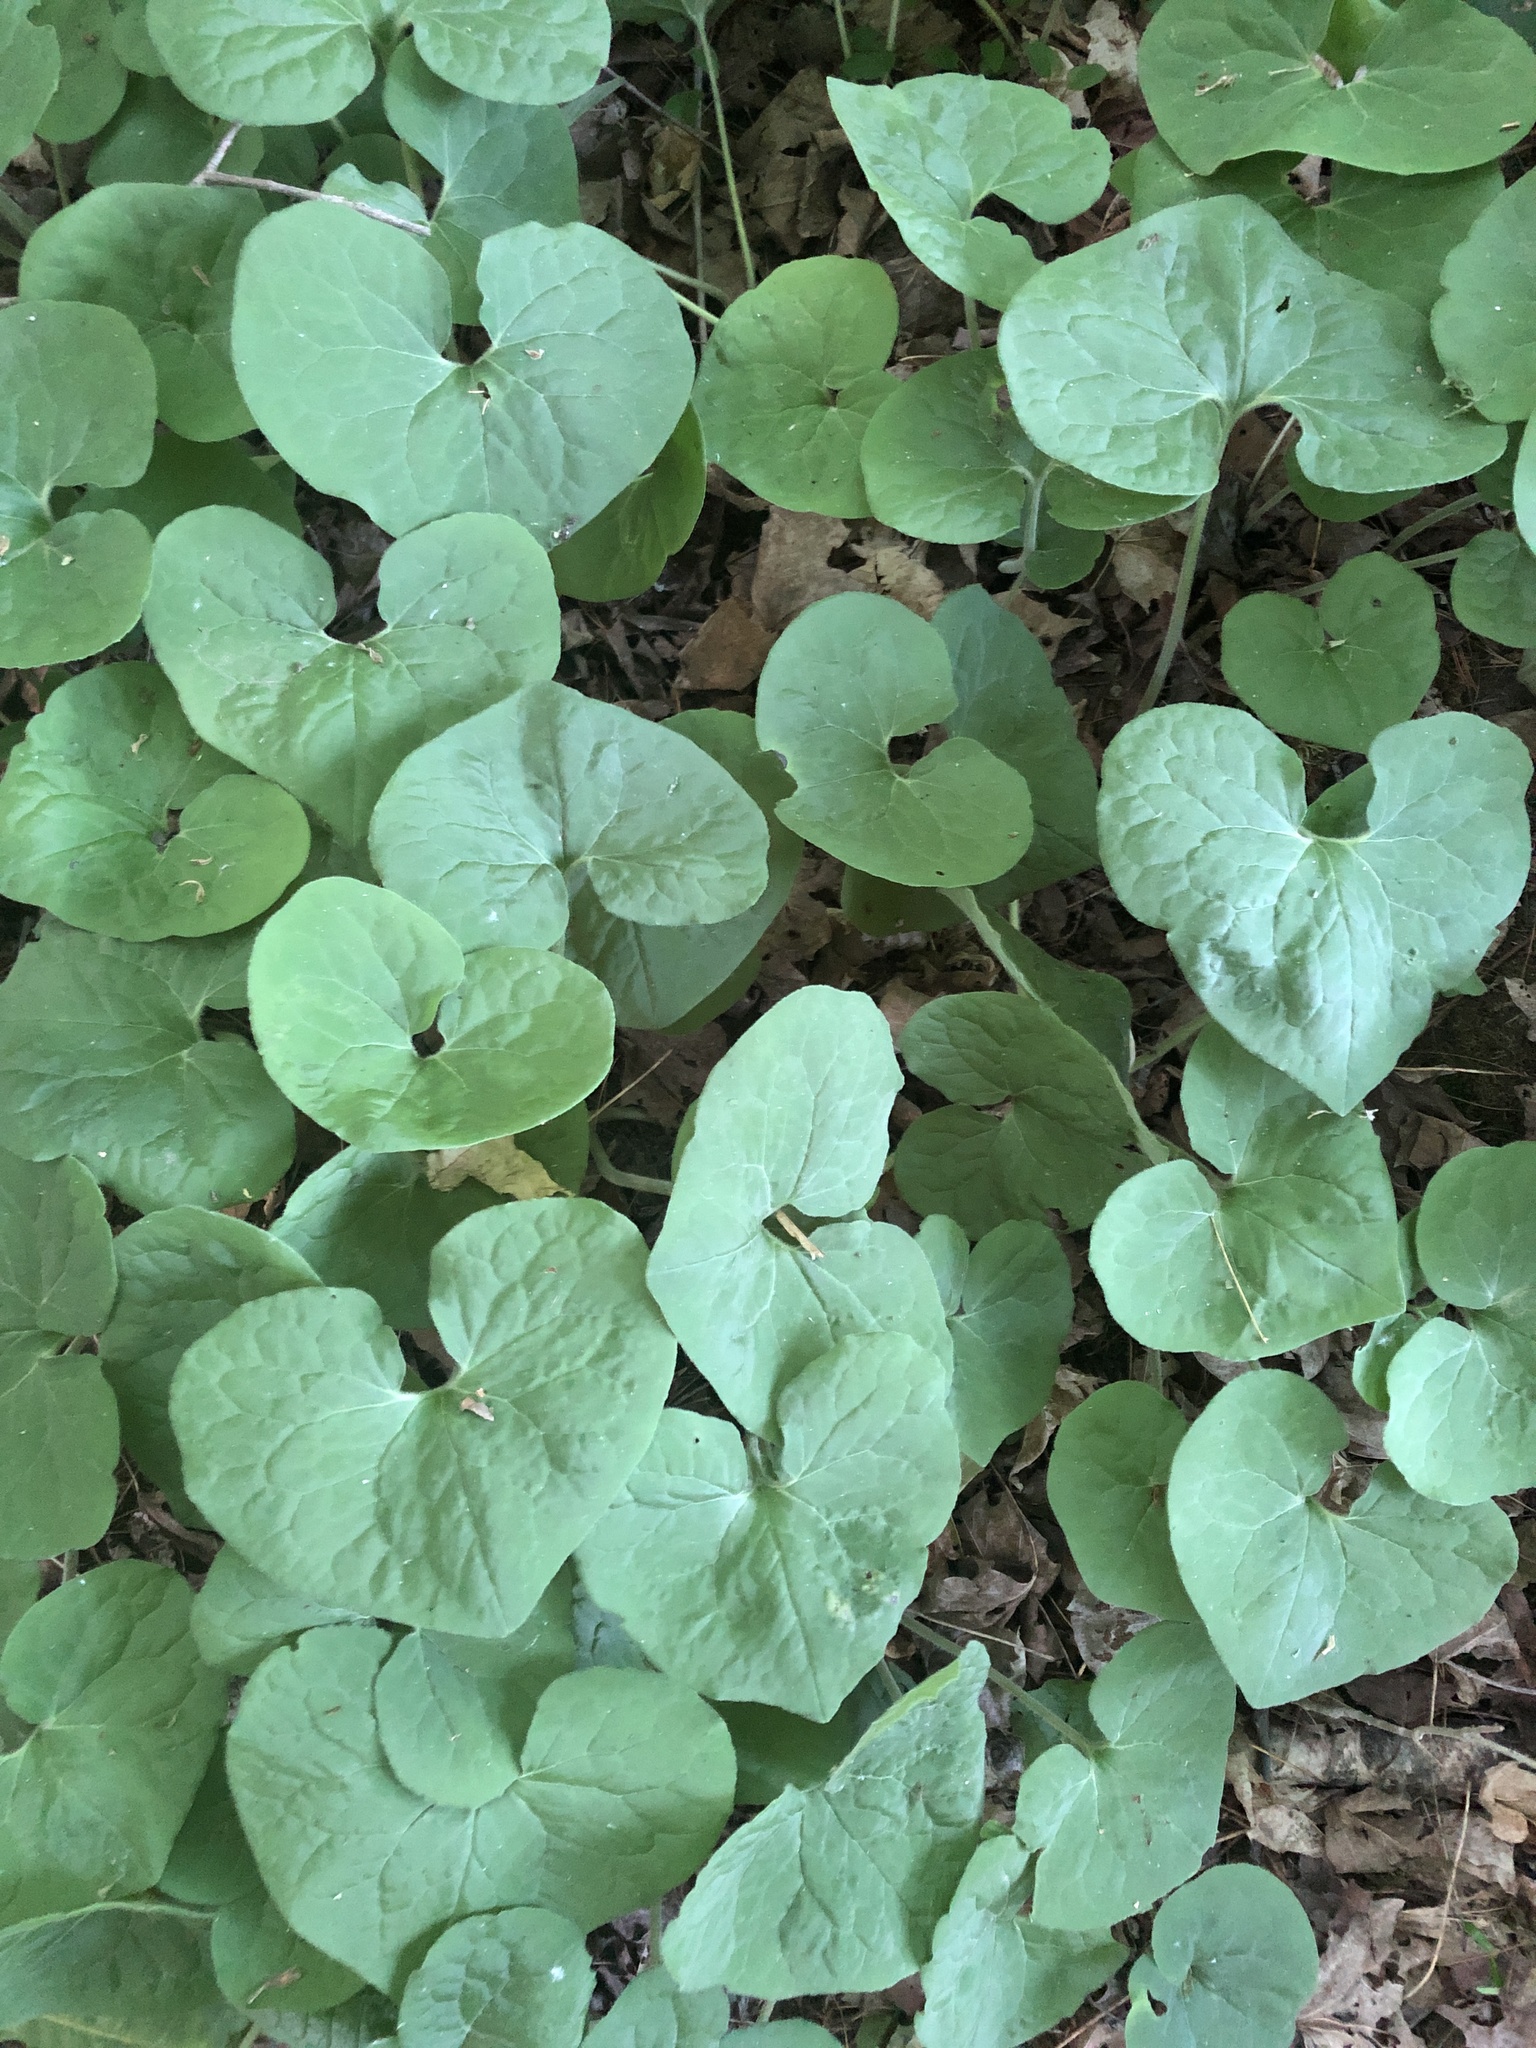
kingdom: Plantae
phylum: Tracheophyta
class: Magnoliopsida
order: Piperales
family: Aristolochiaceae
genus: Asarum
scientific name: Asarum canadense
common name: Wild ginger
